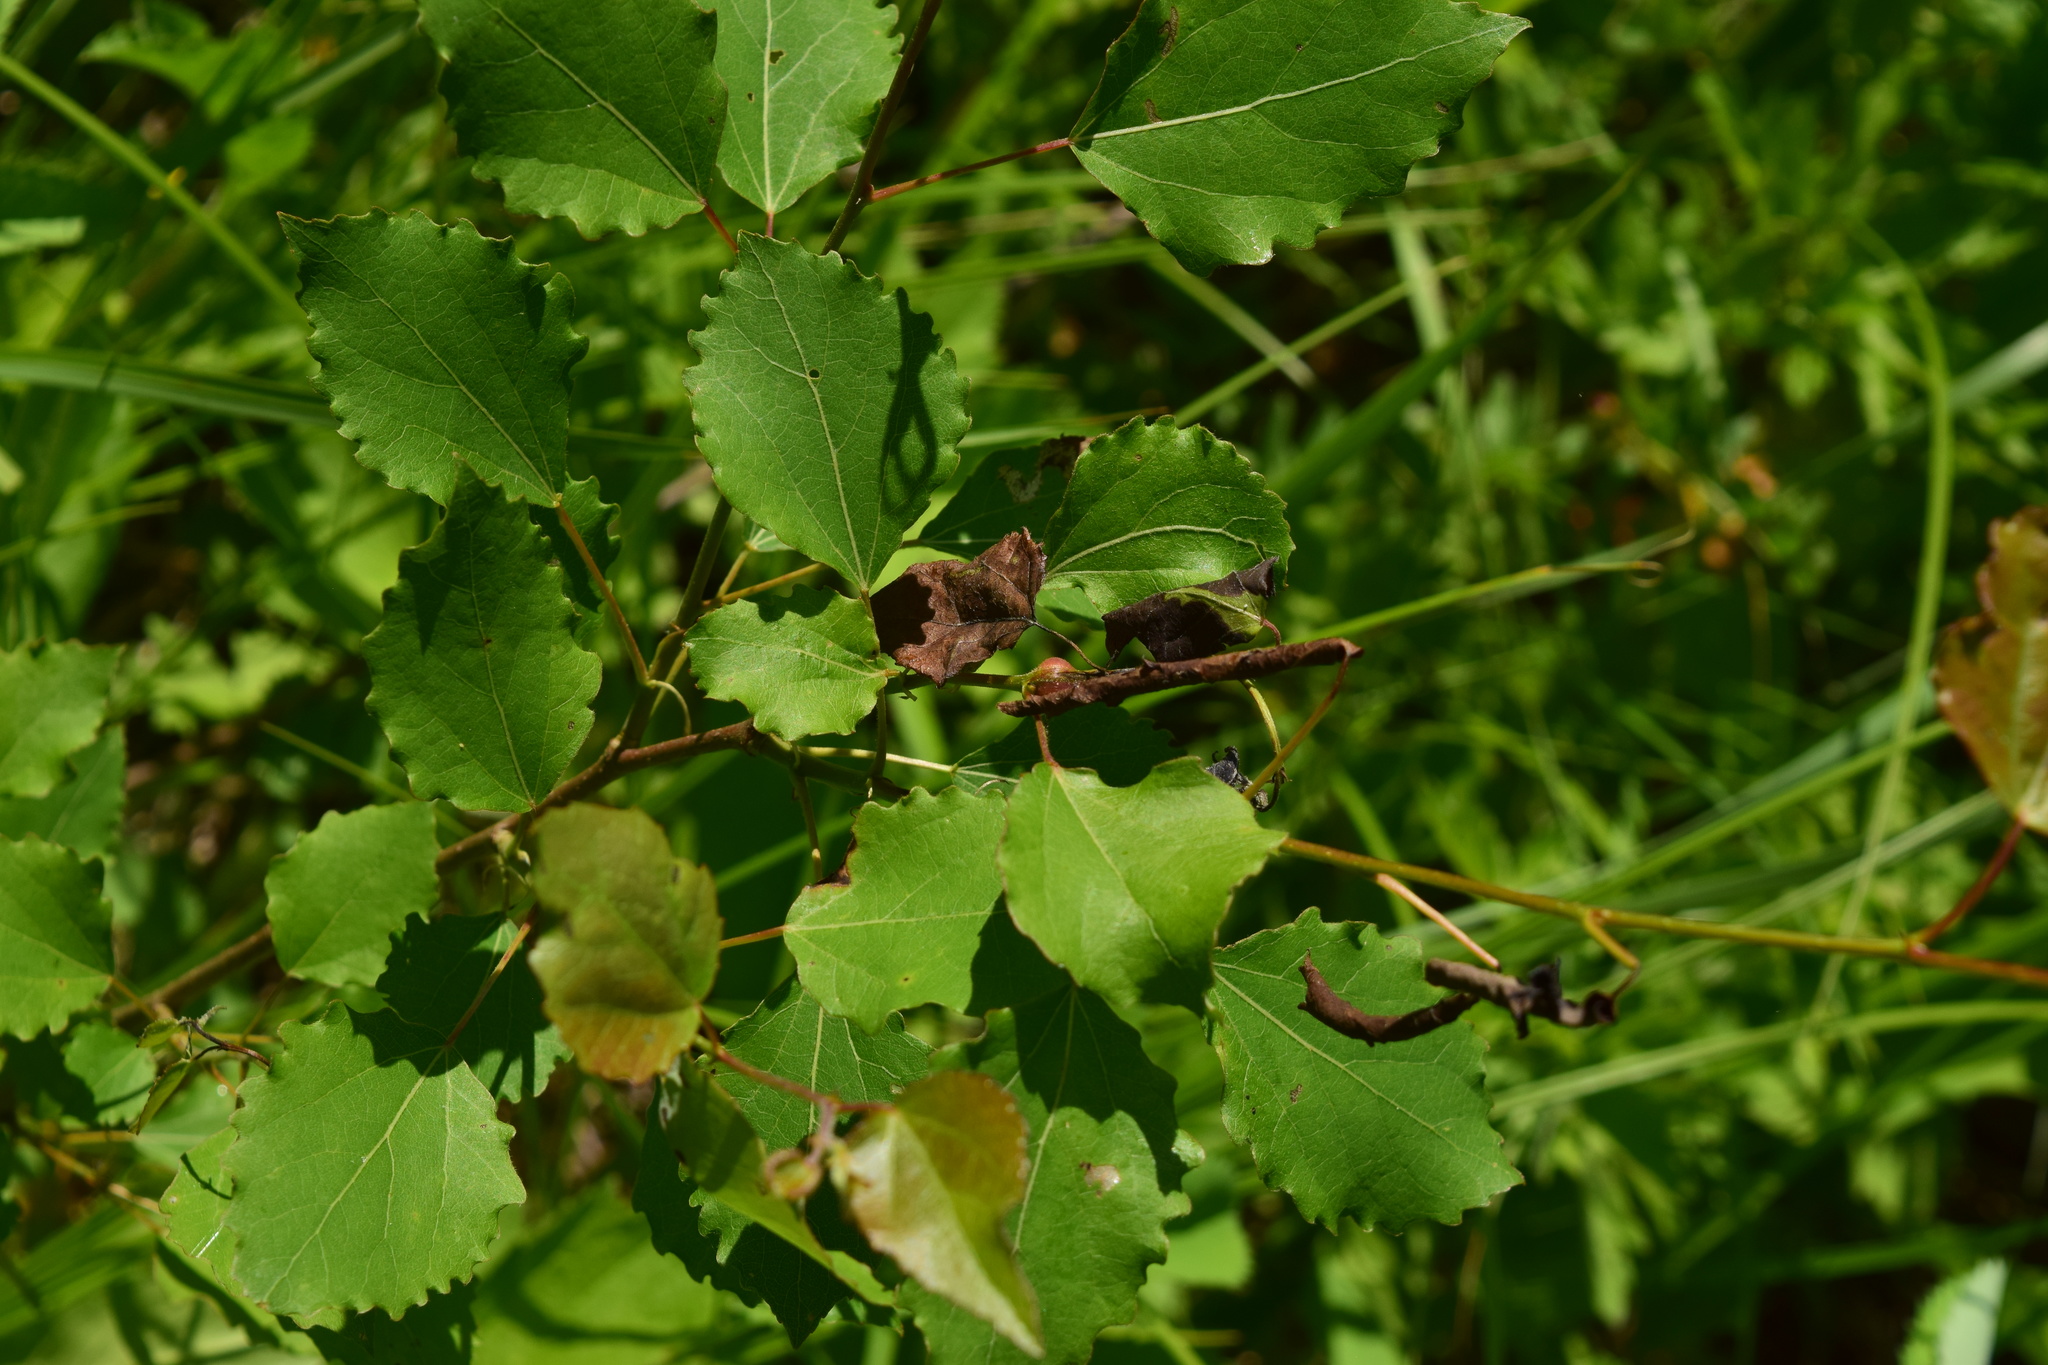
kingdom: Plantae
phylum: Tracheophyta
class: Magnoliopsida
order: Malpighiales
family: Salicaceae
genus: Populus
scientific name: Populus tremula
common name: European aspen
